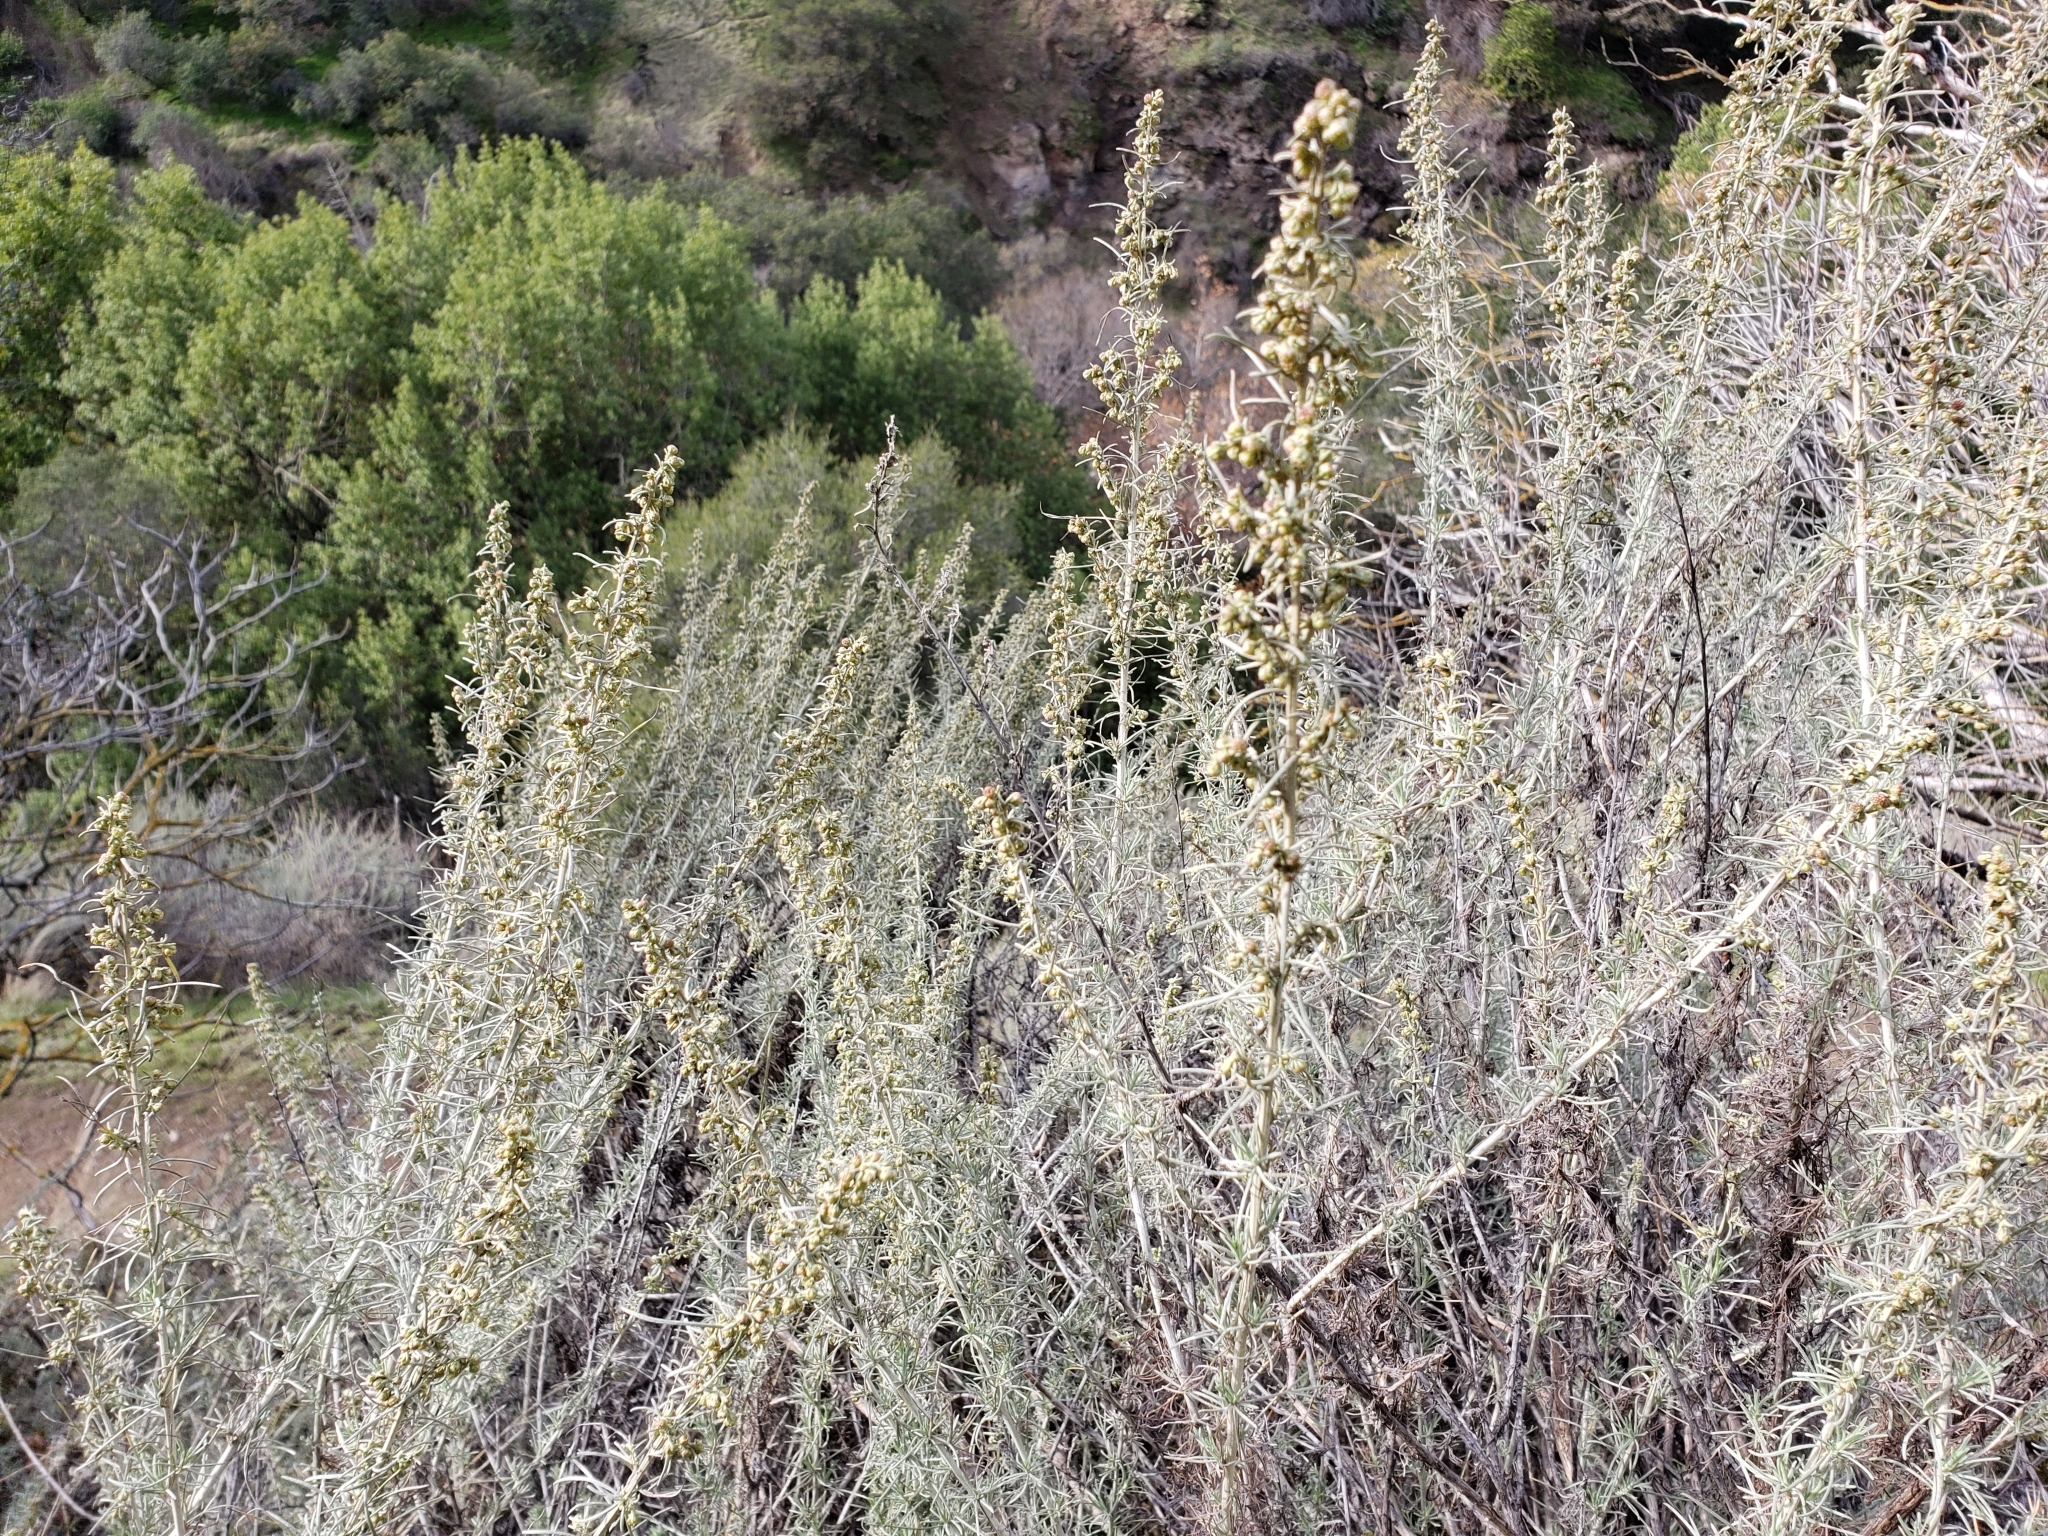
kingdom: Plantae
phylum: Tracheophyta
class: Magnoliopsida
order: Asterales
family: Asteraceae
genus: Artemisia
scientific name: Artemisia californica
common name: California sagebrush
